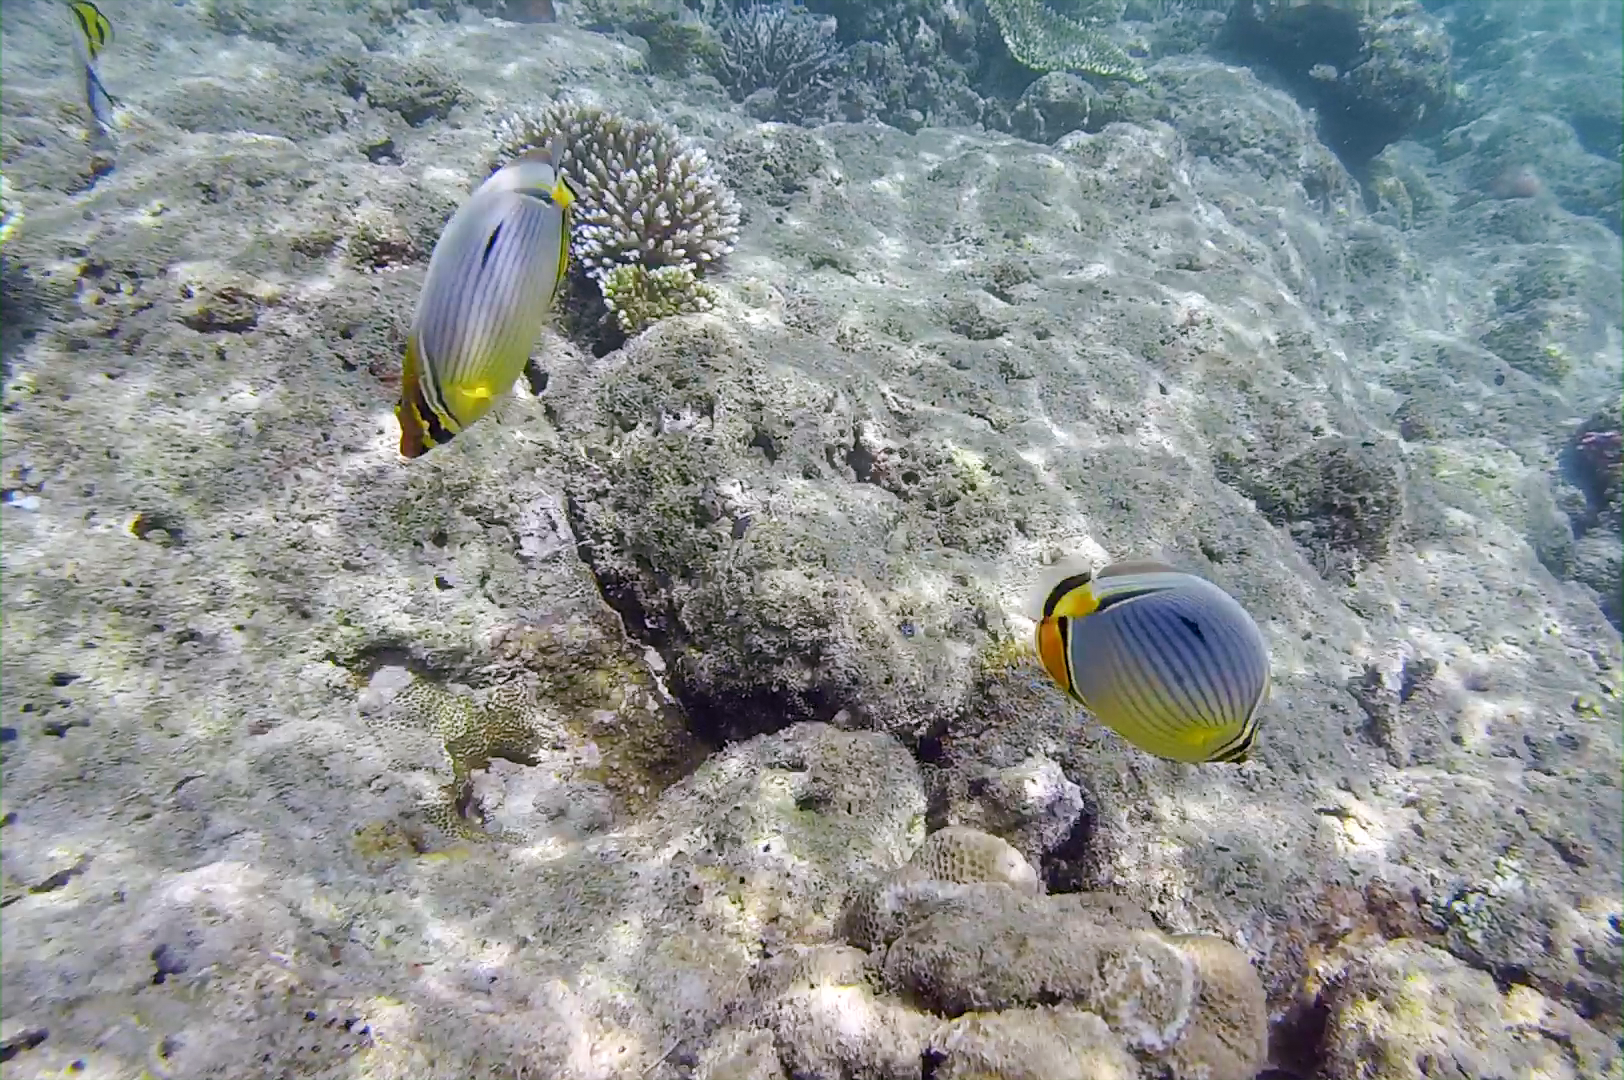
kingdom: Animalia
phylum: Chordata
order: Perciformes
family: Chaetodontidae
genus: Chaetodon
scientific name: Chaetodon trifasciatus
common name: Redfin butterflyfish
